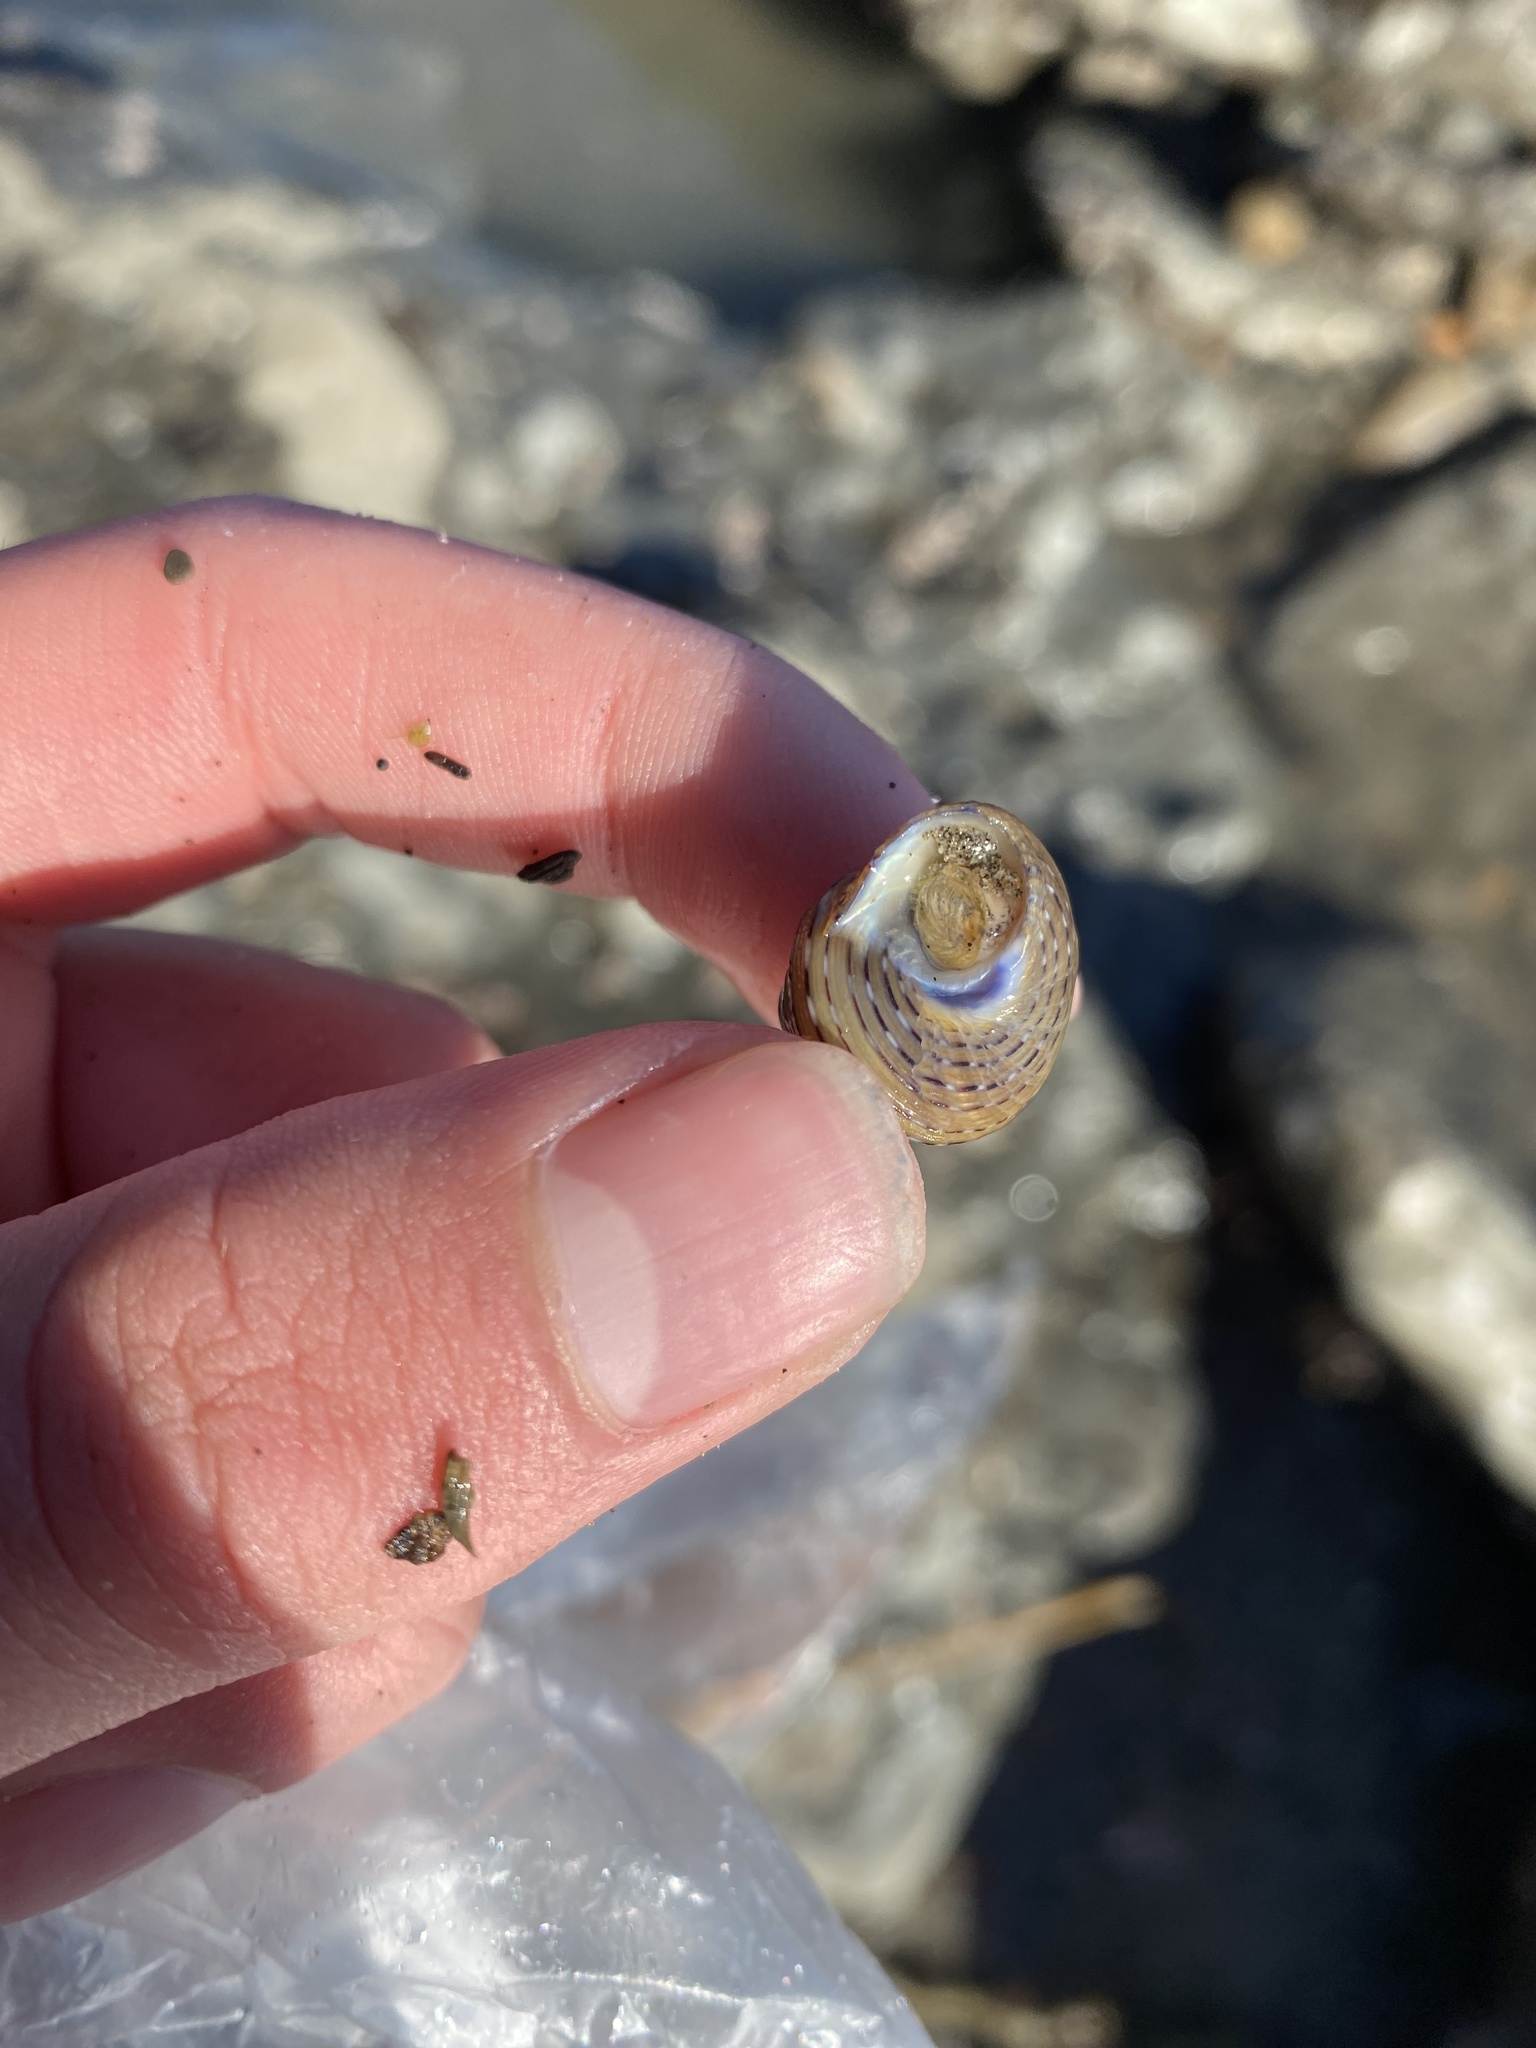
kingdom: Animalia
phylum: Mollusca
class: Gastropoda
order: Trochida
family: Calliostomatidae
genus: Calliostoma
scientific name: Calliostoma tricolor
